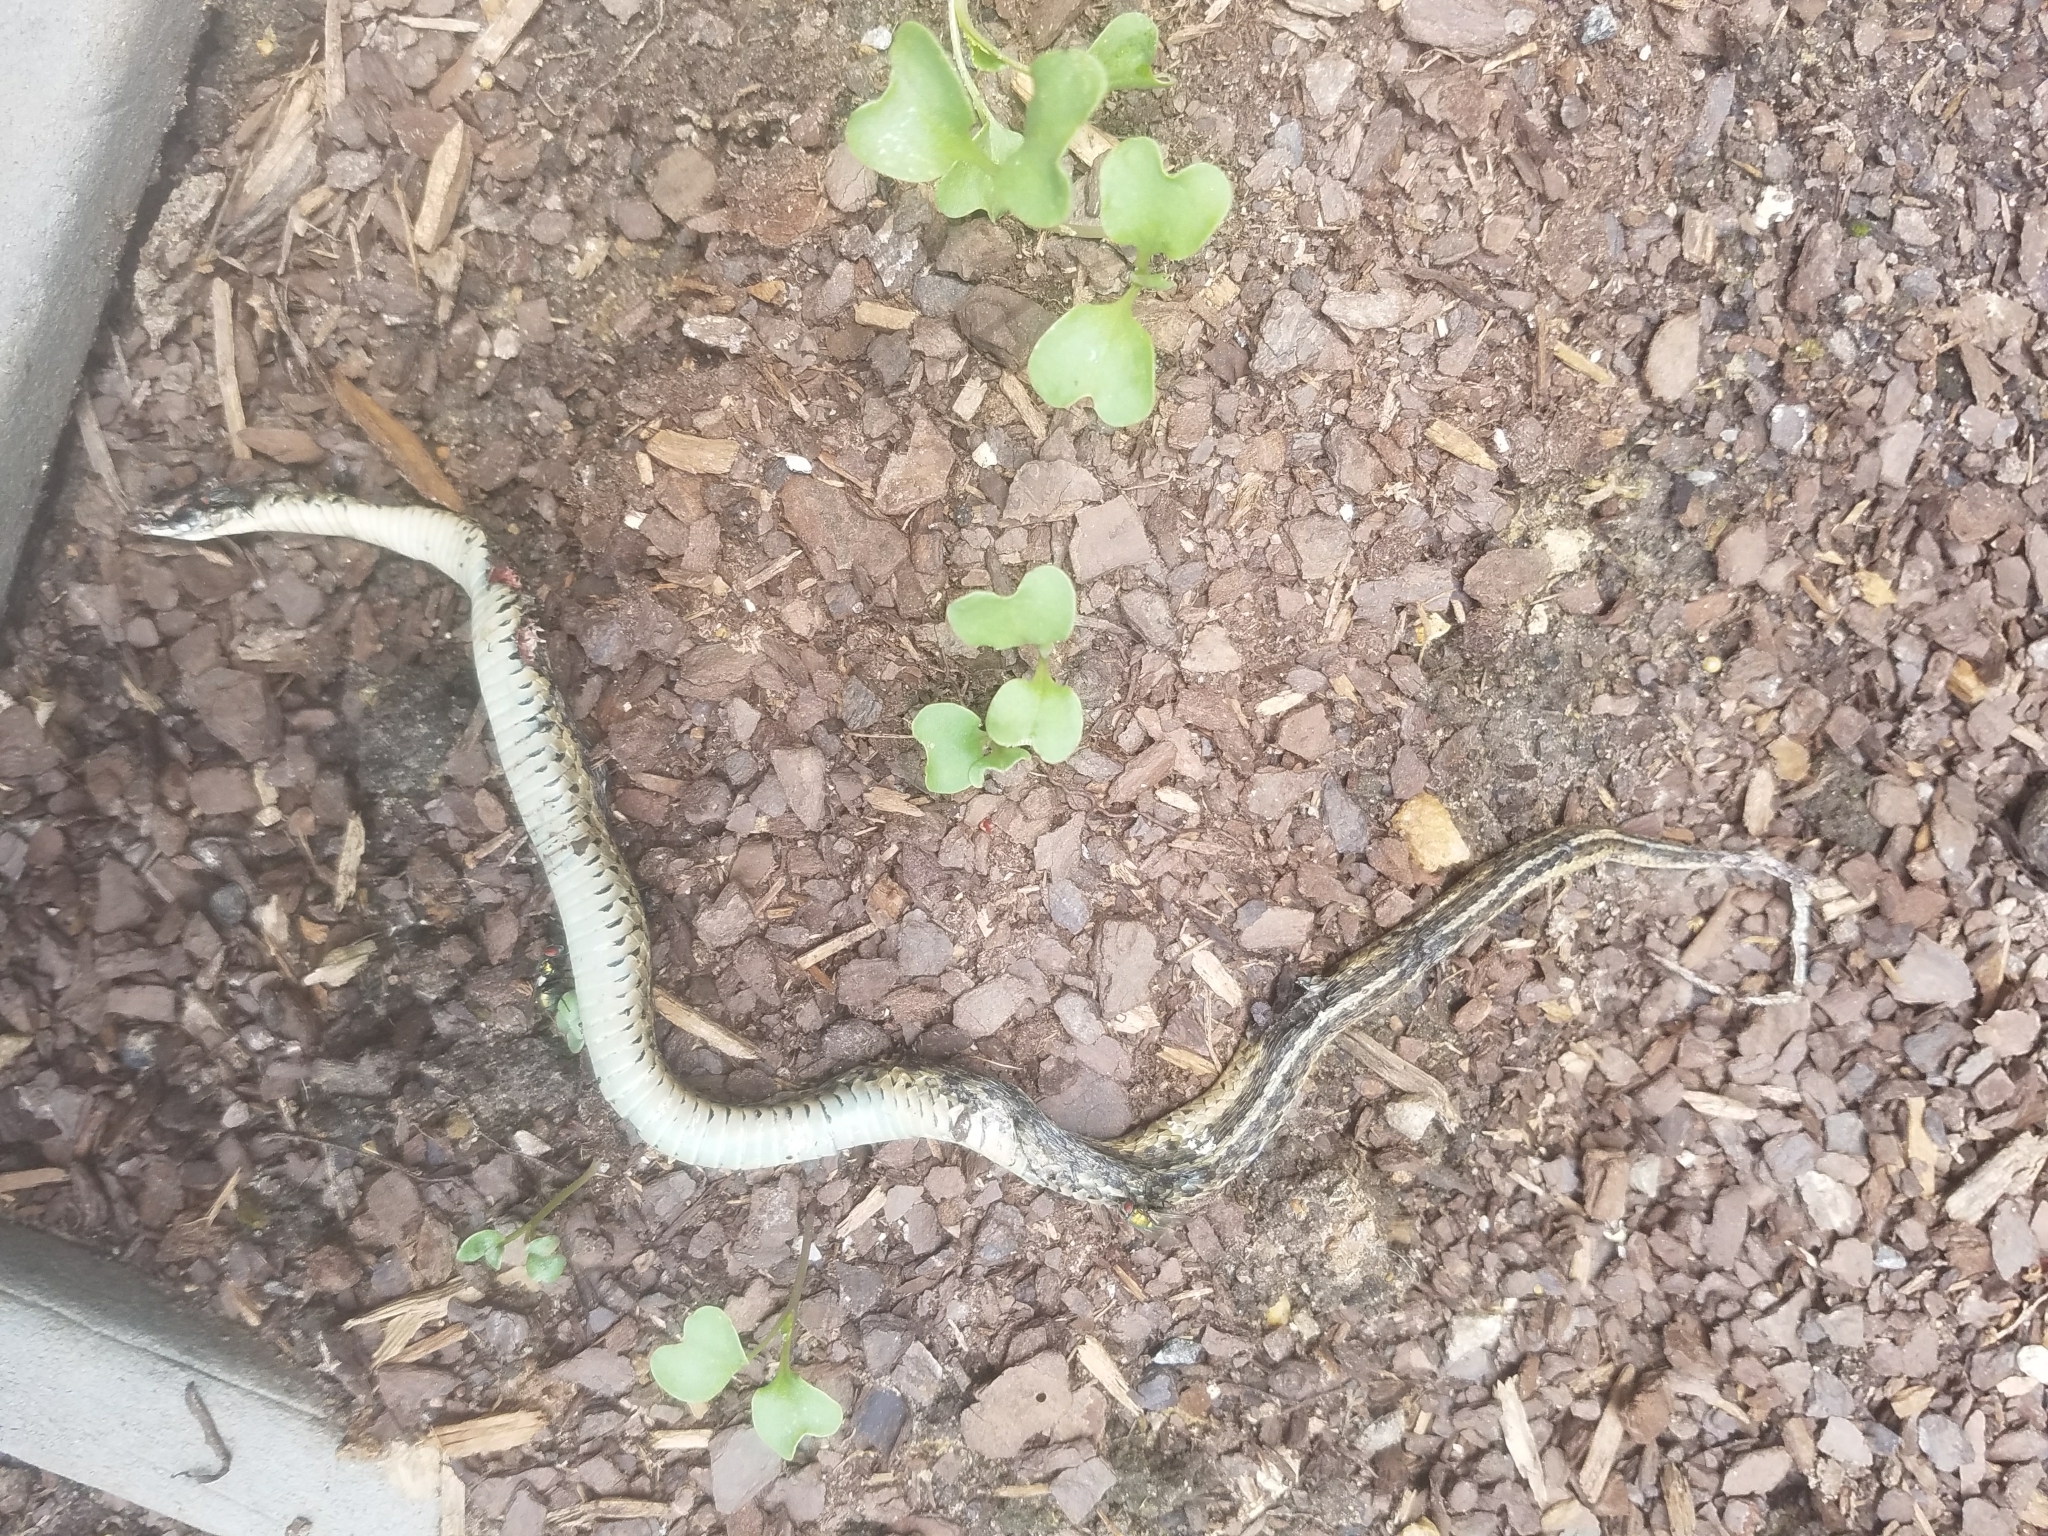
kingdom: Animalia
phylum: Chordata
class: Squamata
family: Colubridae
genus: Thamnophis
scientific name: Thamnophis sirtalis
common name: Common garter snake
